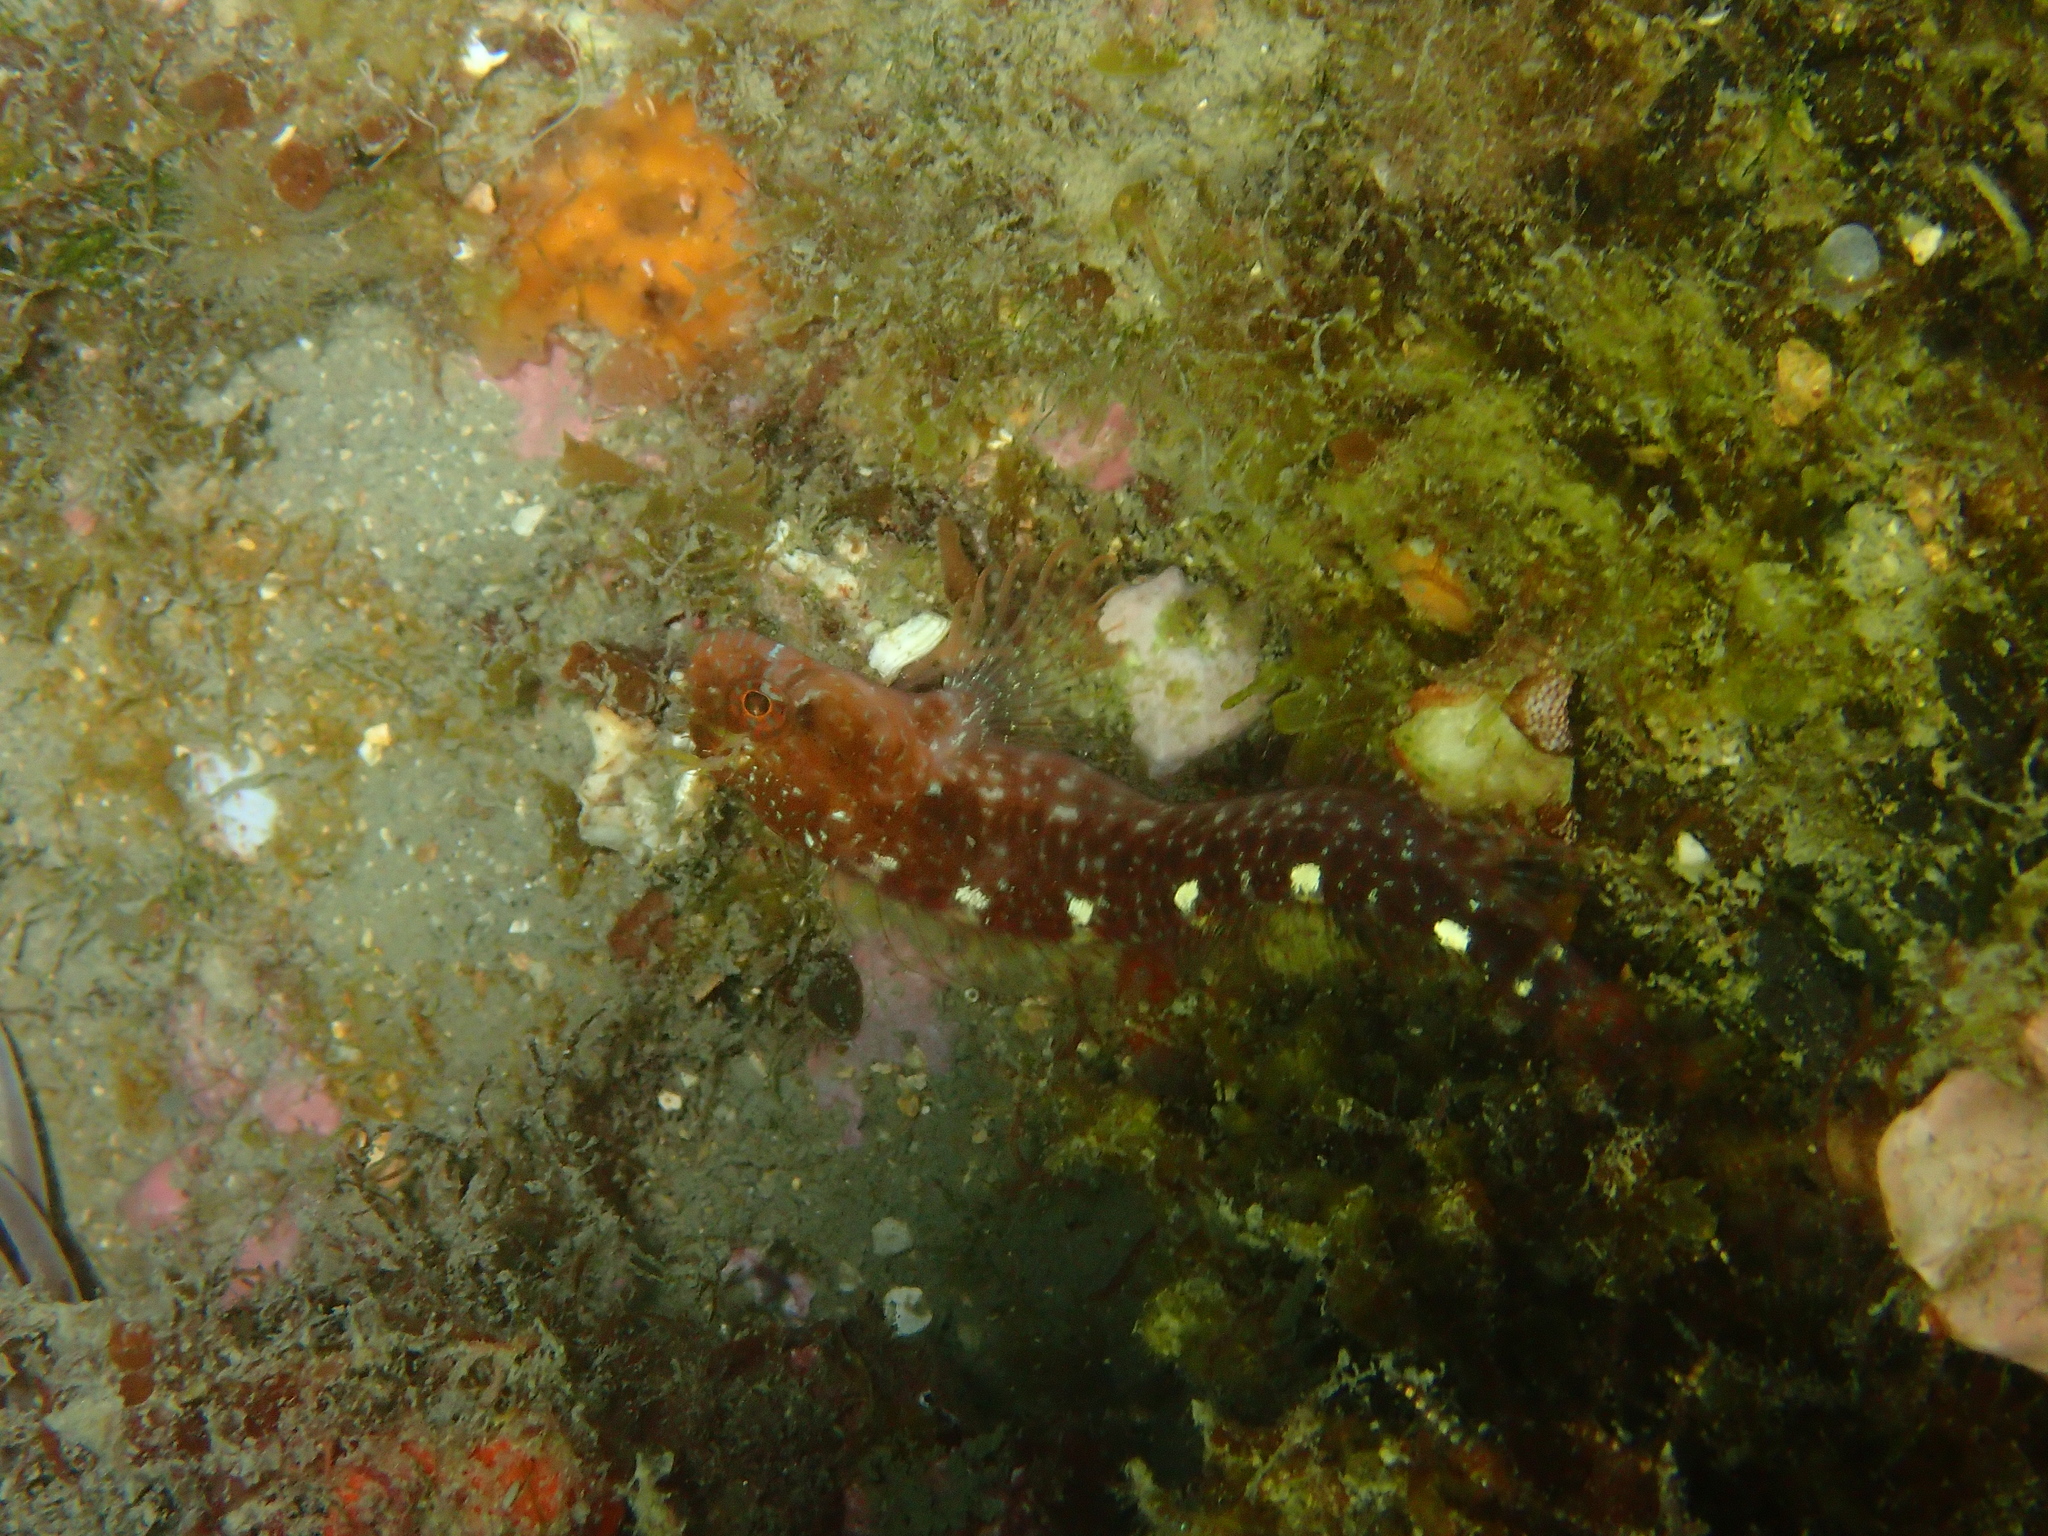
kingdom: Animalia
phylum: Chordata
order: Perciformes
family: Blenniidae
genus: Parablennius
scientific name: Parablennius zvonimiri
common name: Red blenny
